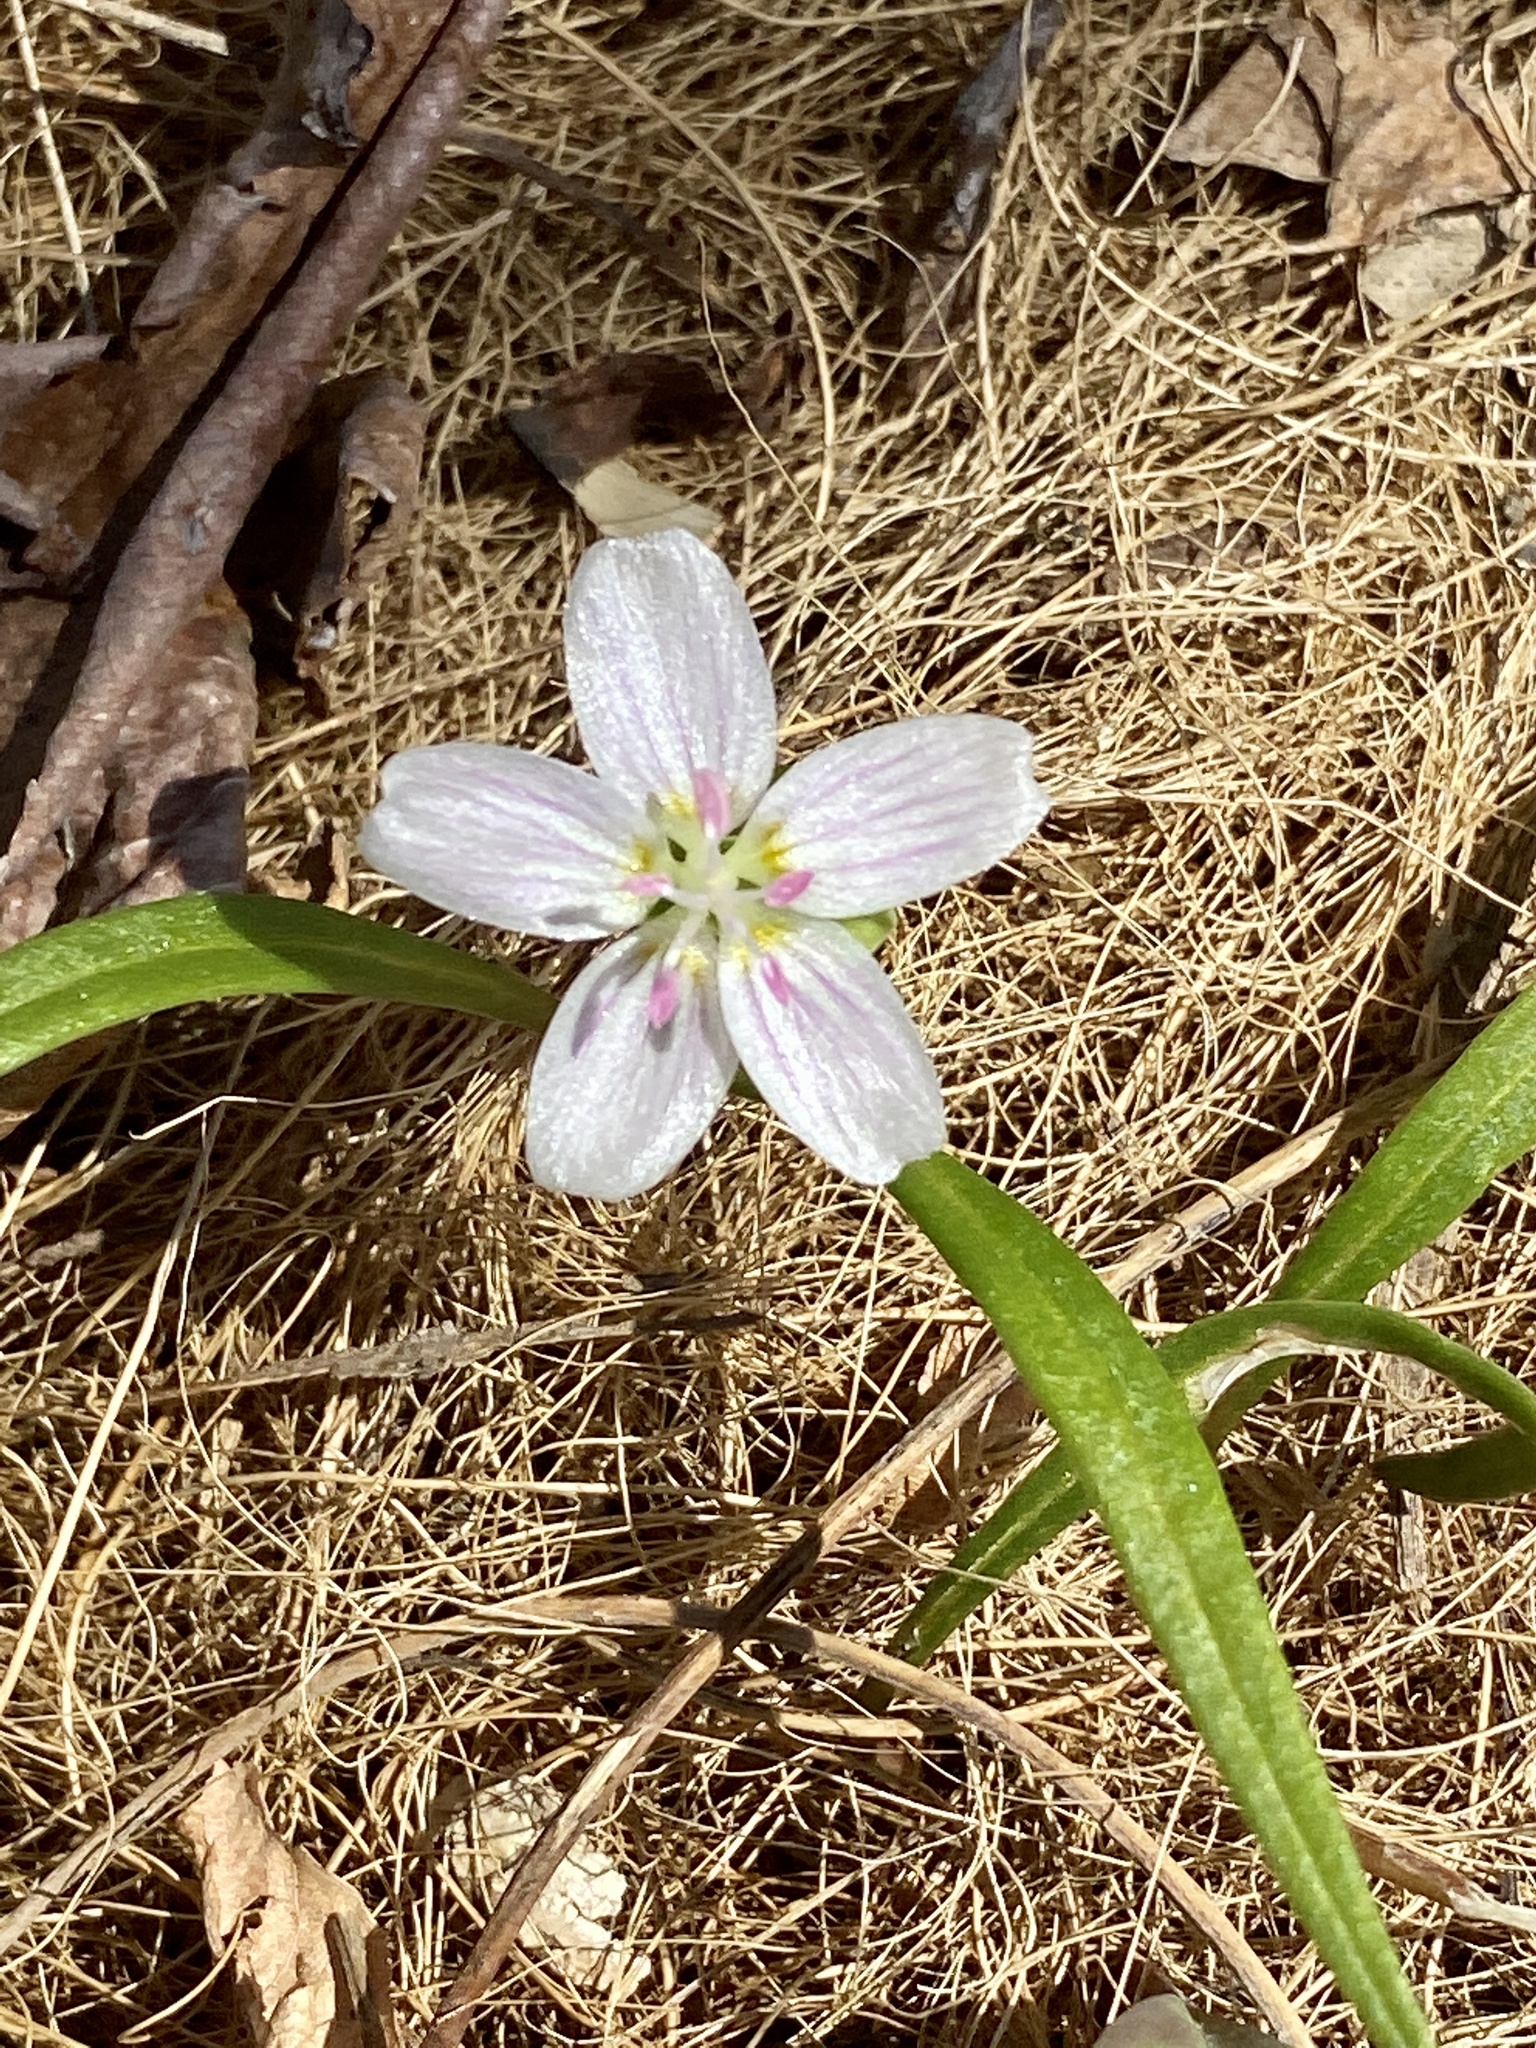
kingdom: Plantae
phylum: Tracheophyta
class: Magnoliopsida
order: Caryophyllales
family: Montiaceae
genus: Claytonia
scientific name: Claytonia virginica
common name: Virginia springbeauty
